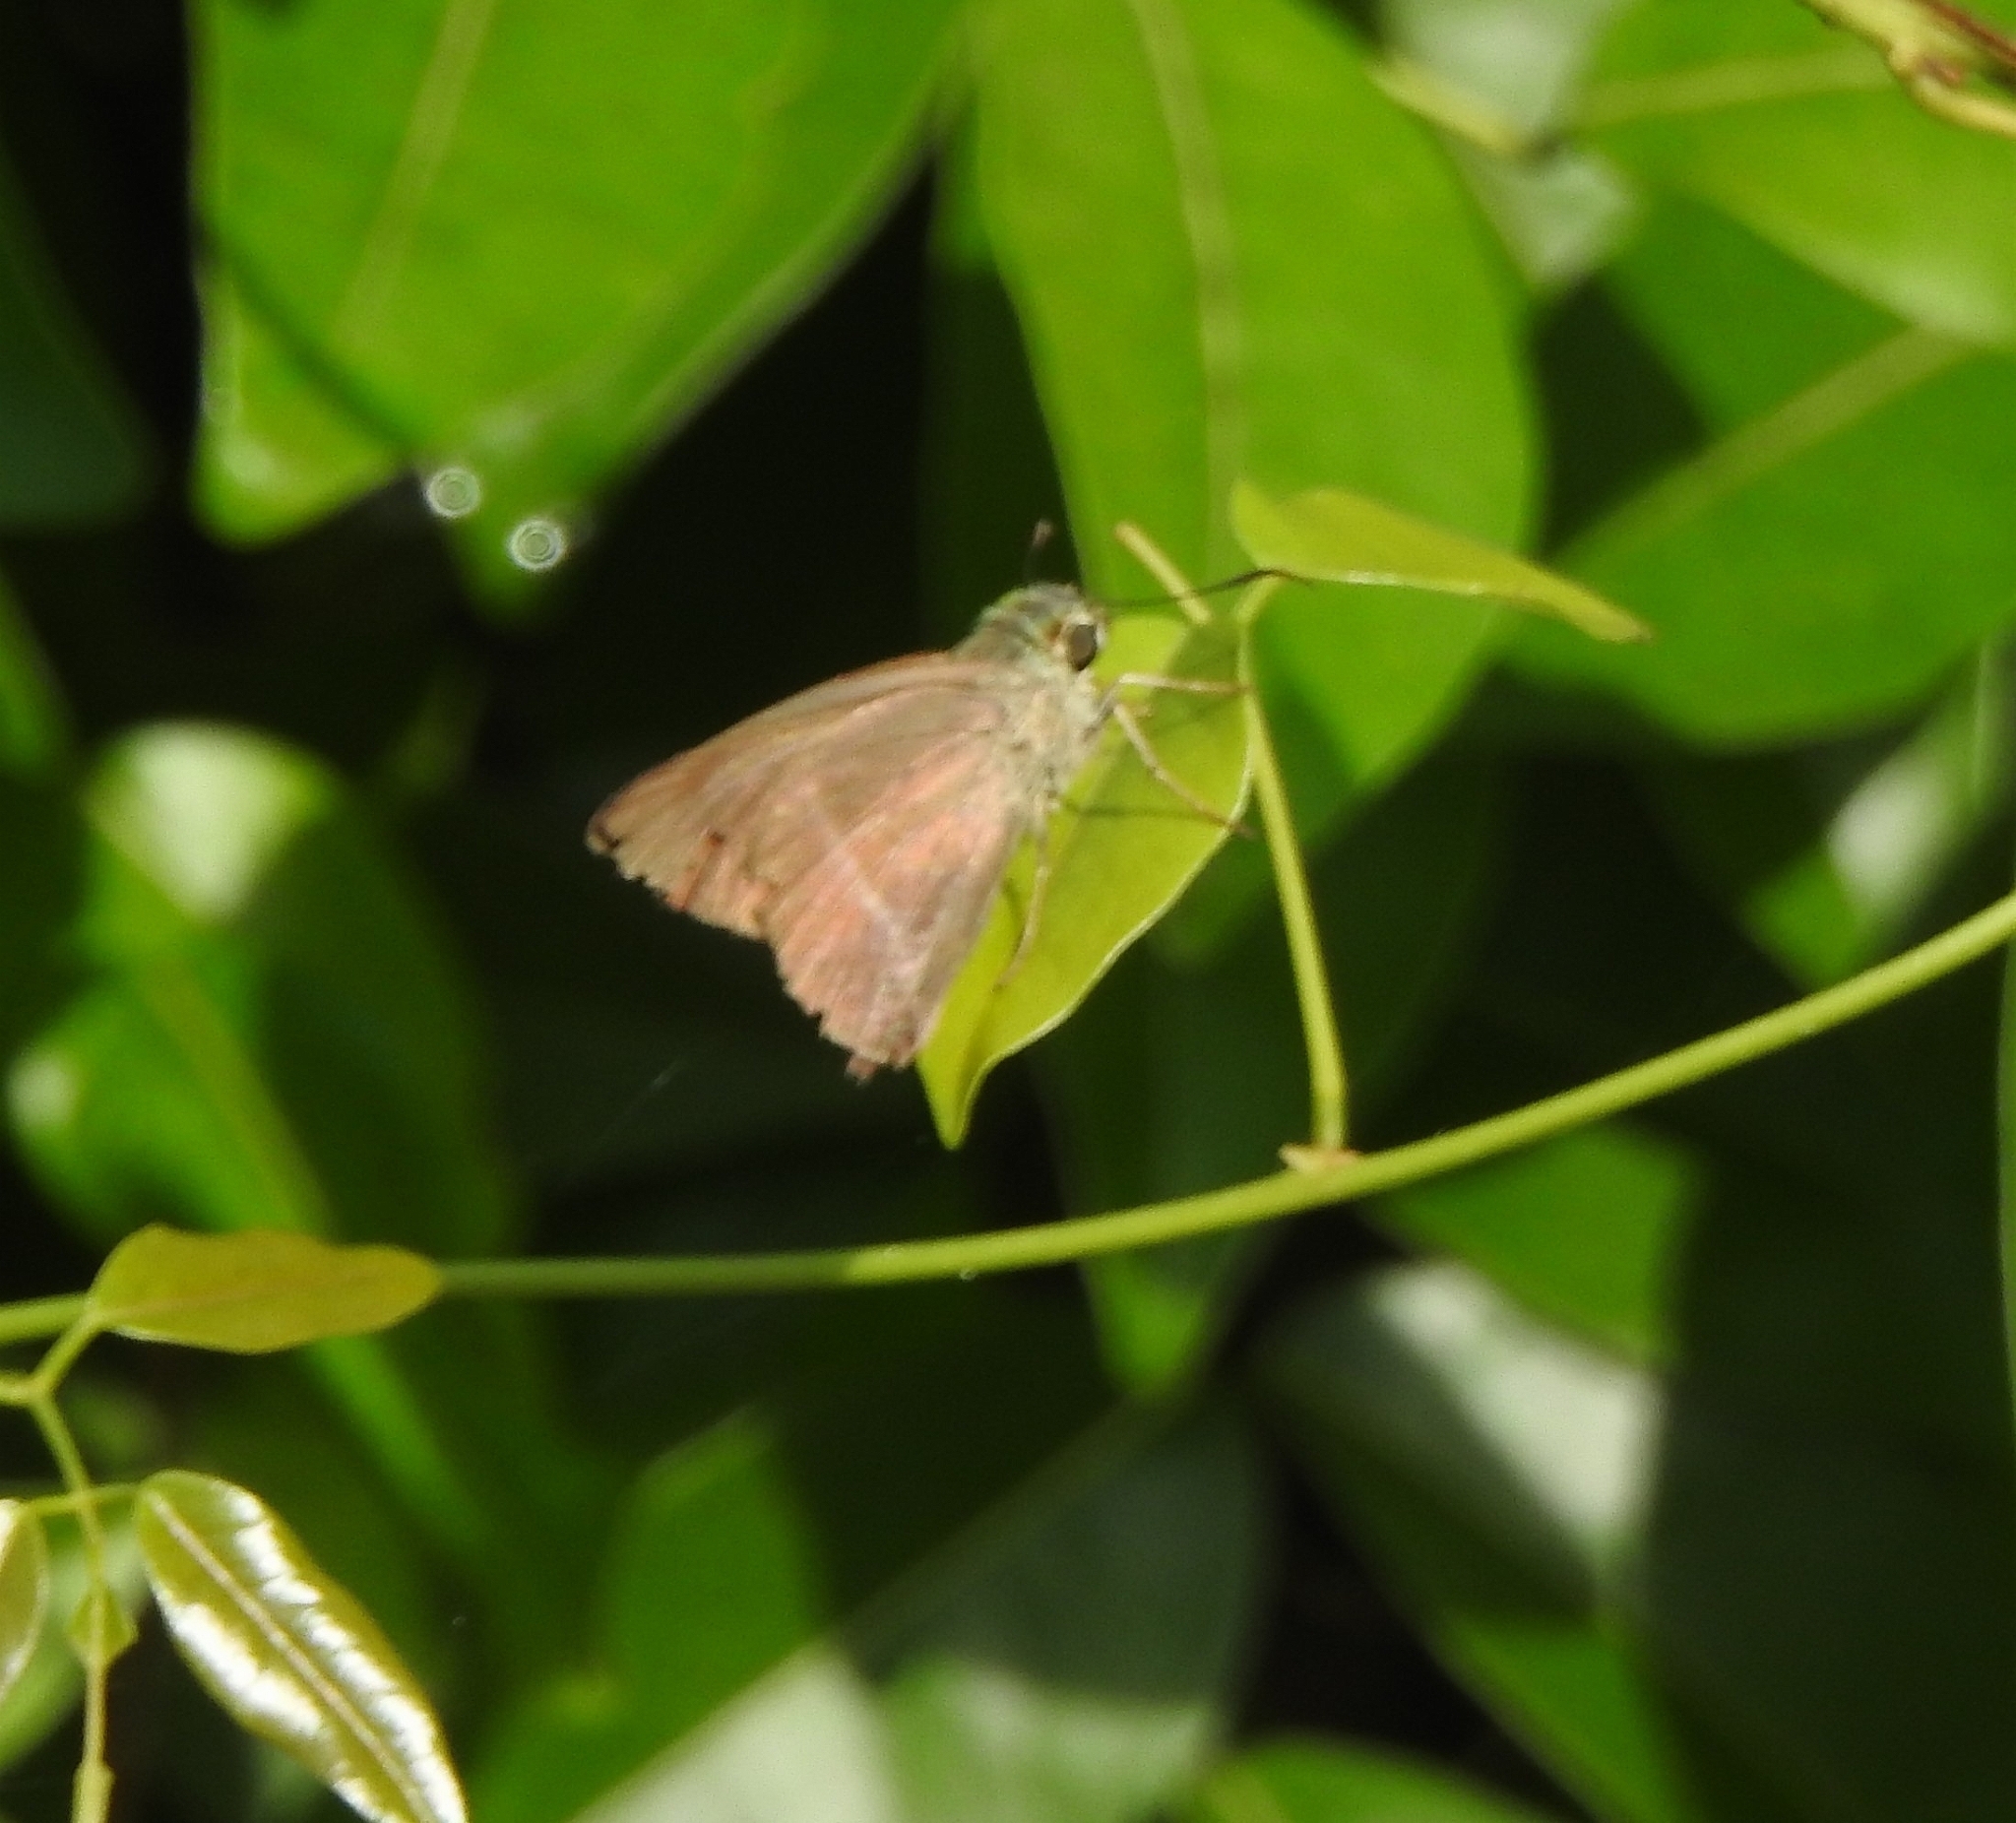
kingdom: Animalia
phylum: Arthropoda
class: Insecta
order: Lepidoptera
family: Hesperiidae
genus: Hasora
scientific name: Hasora chromus
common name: Common banded awl
